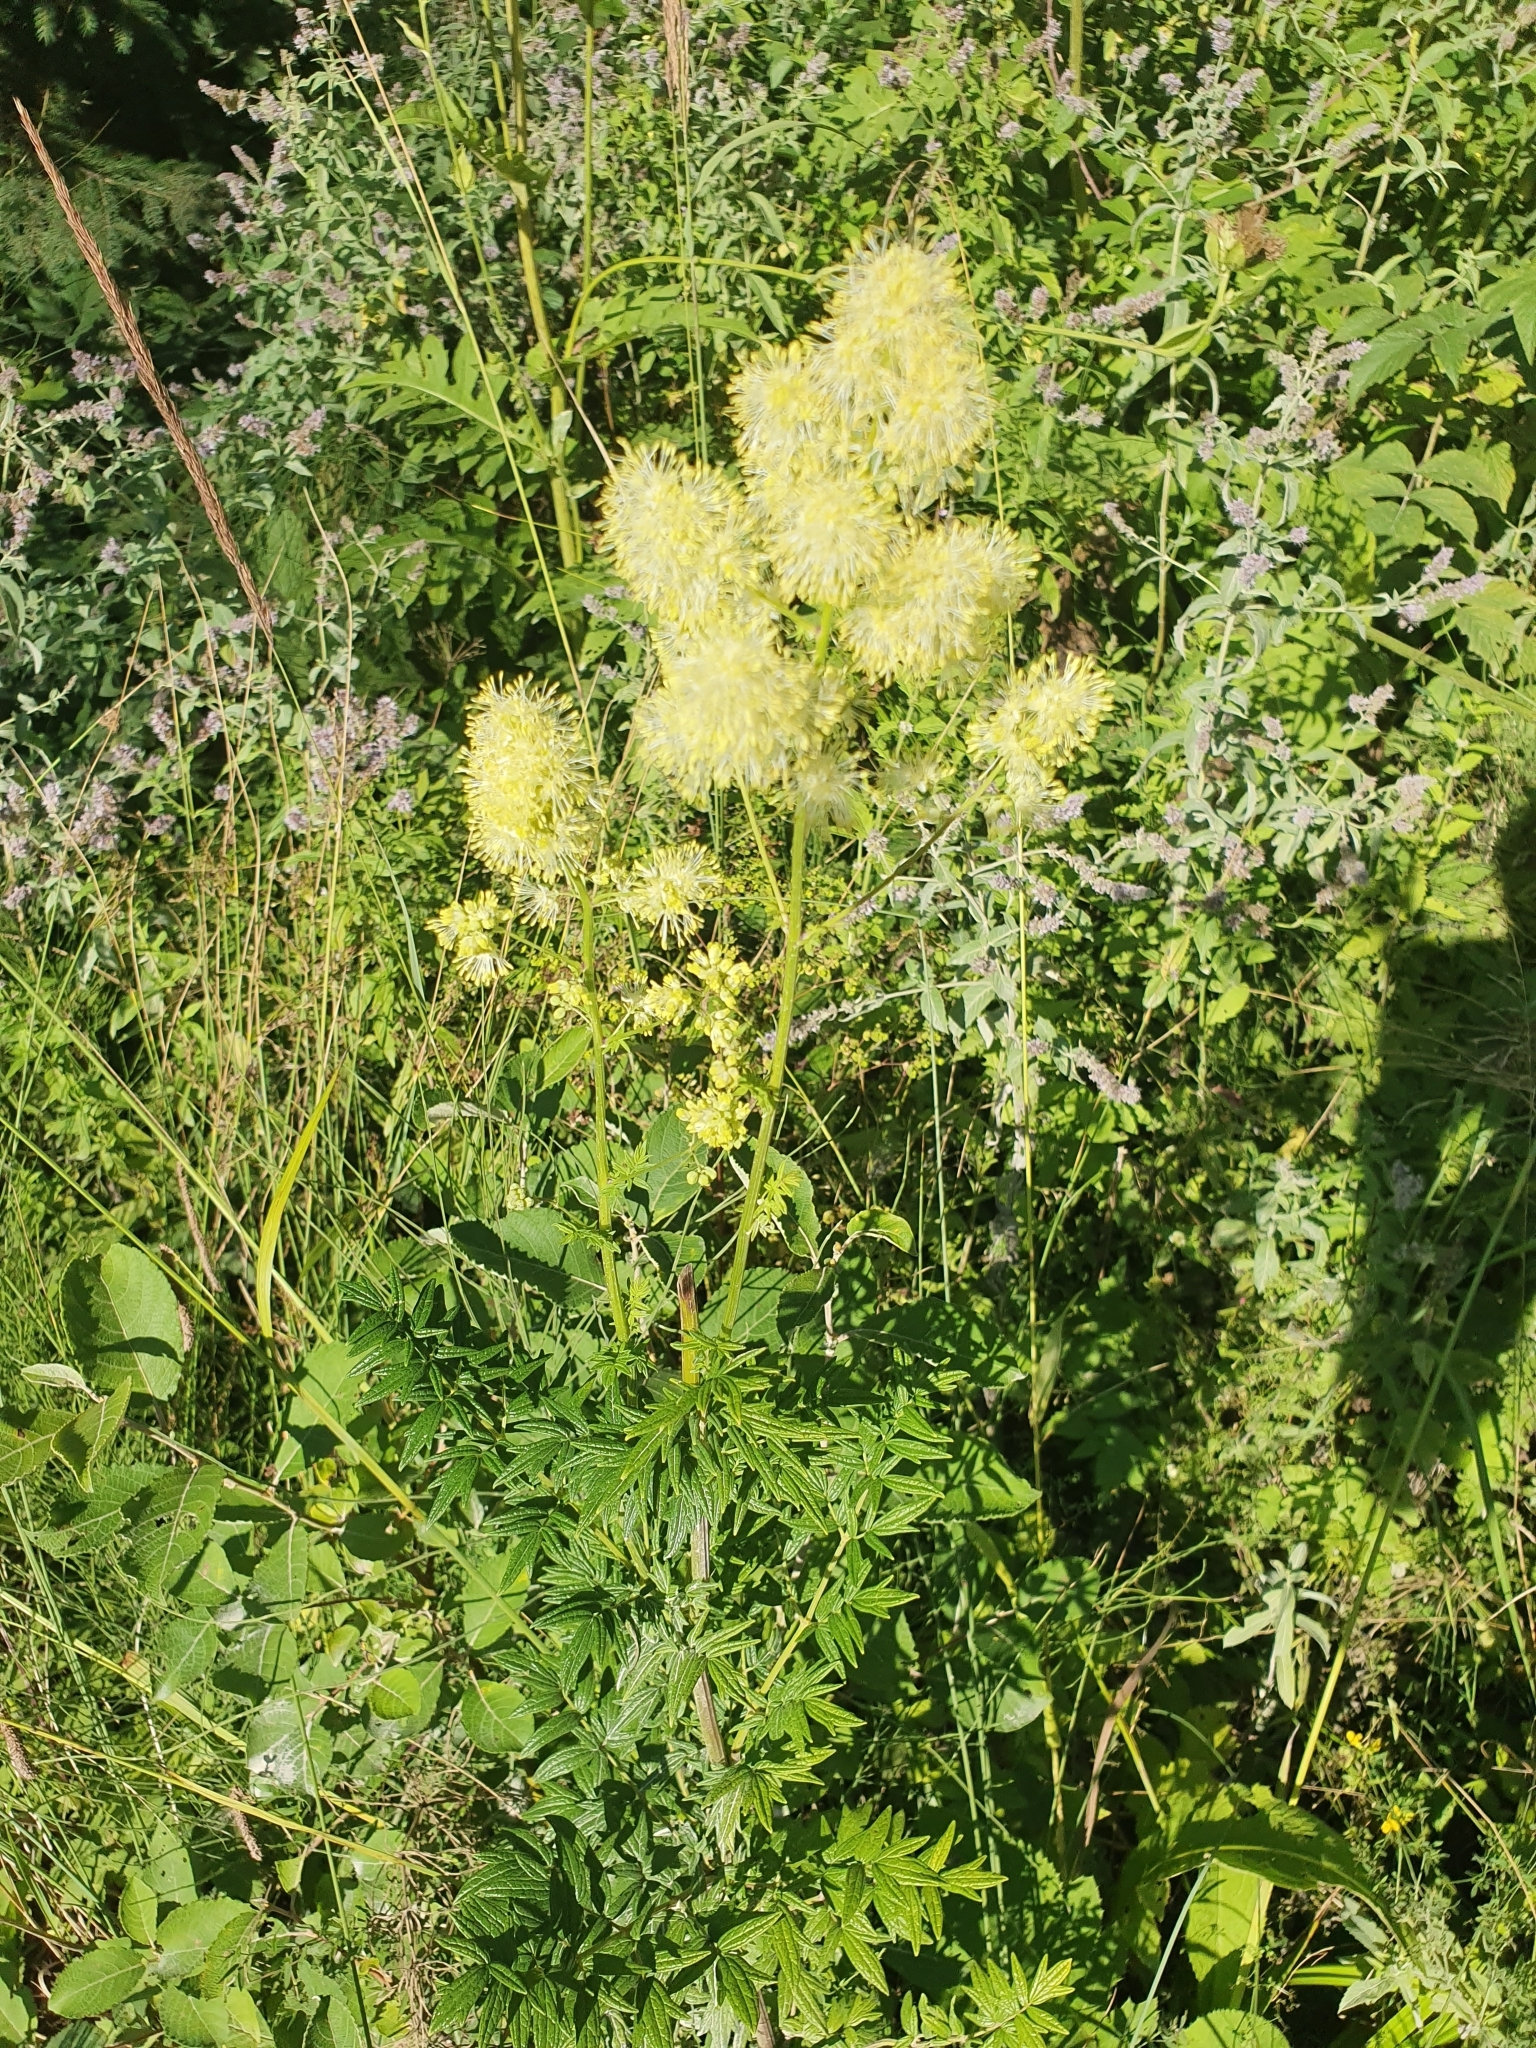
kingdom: Plantae
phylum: Tracheophyta
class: Magnoliopsida
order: Ranunculales
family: Ranunculaceae
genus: Thalictrum
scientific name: Thalictrum lucidum
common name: Shining meadow-rue
